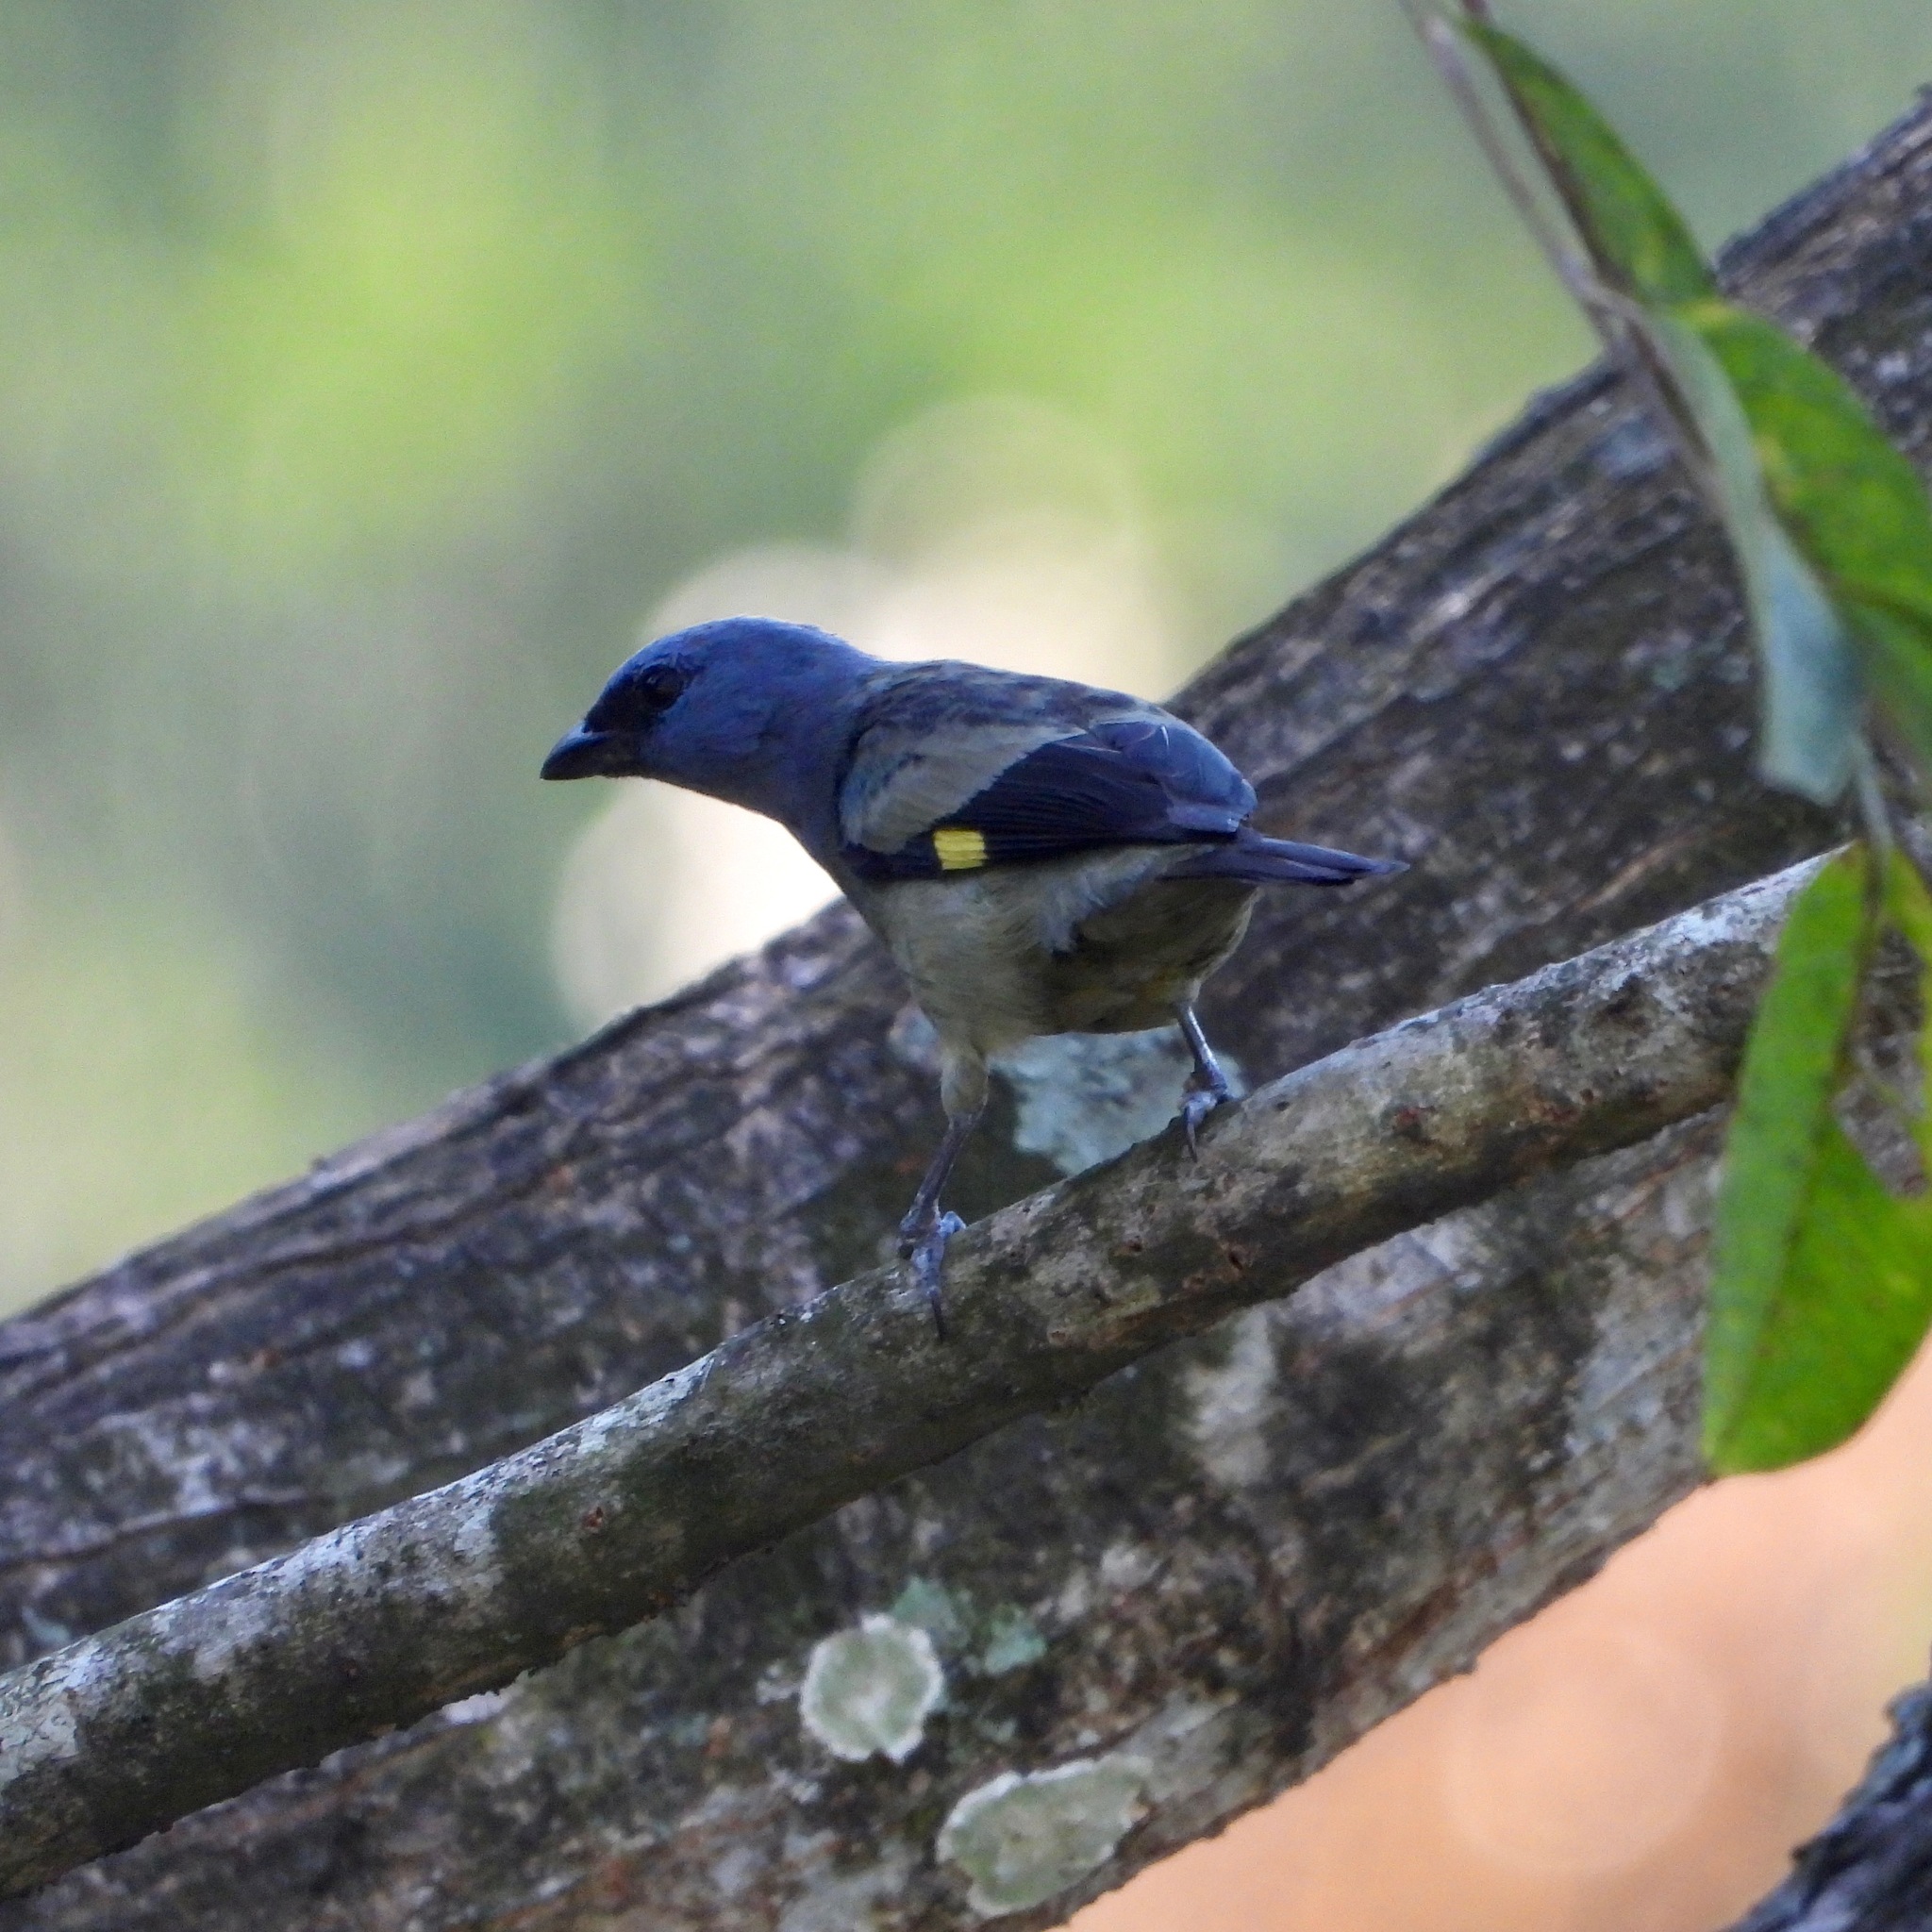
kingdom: Animalia
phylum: Chordata
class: Aves
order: Passeriformes
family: Thraupidae
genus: Thraupis
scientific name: Thraupis abbas
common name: Yellow-winged tanager
